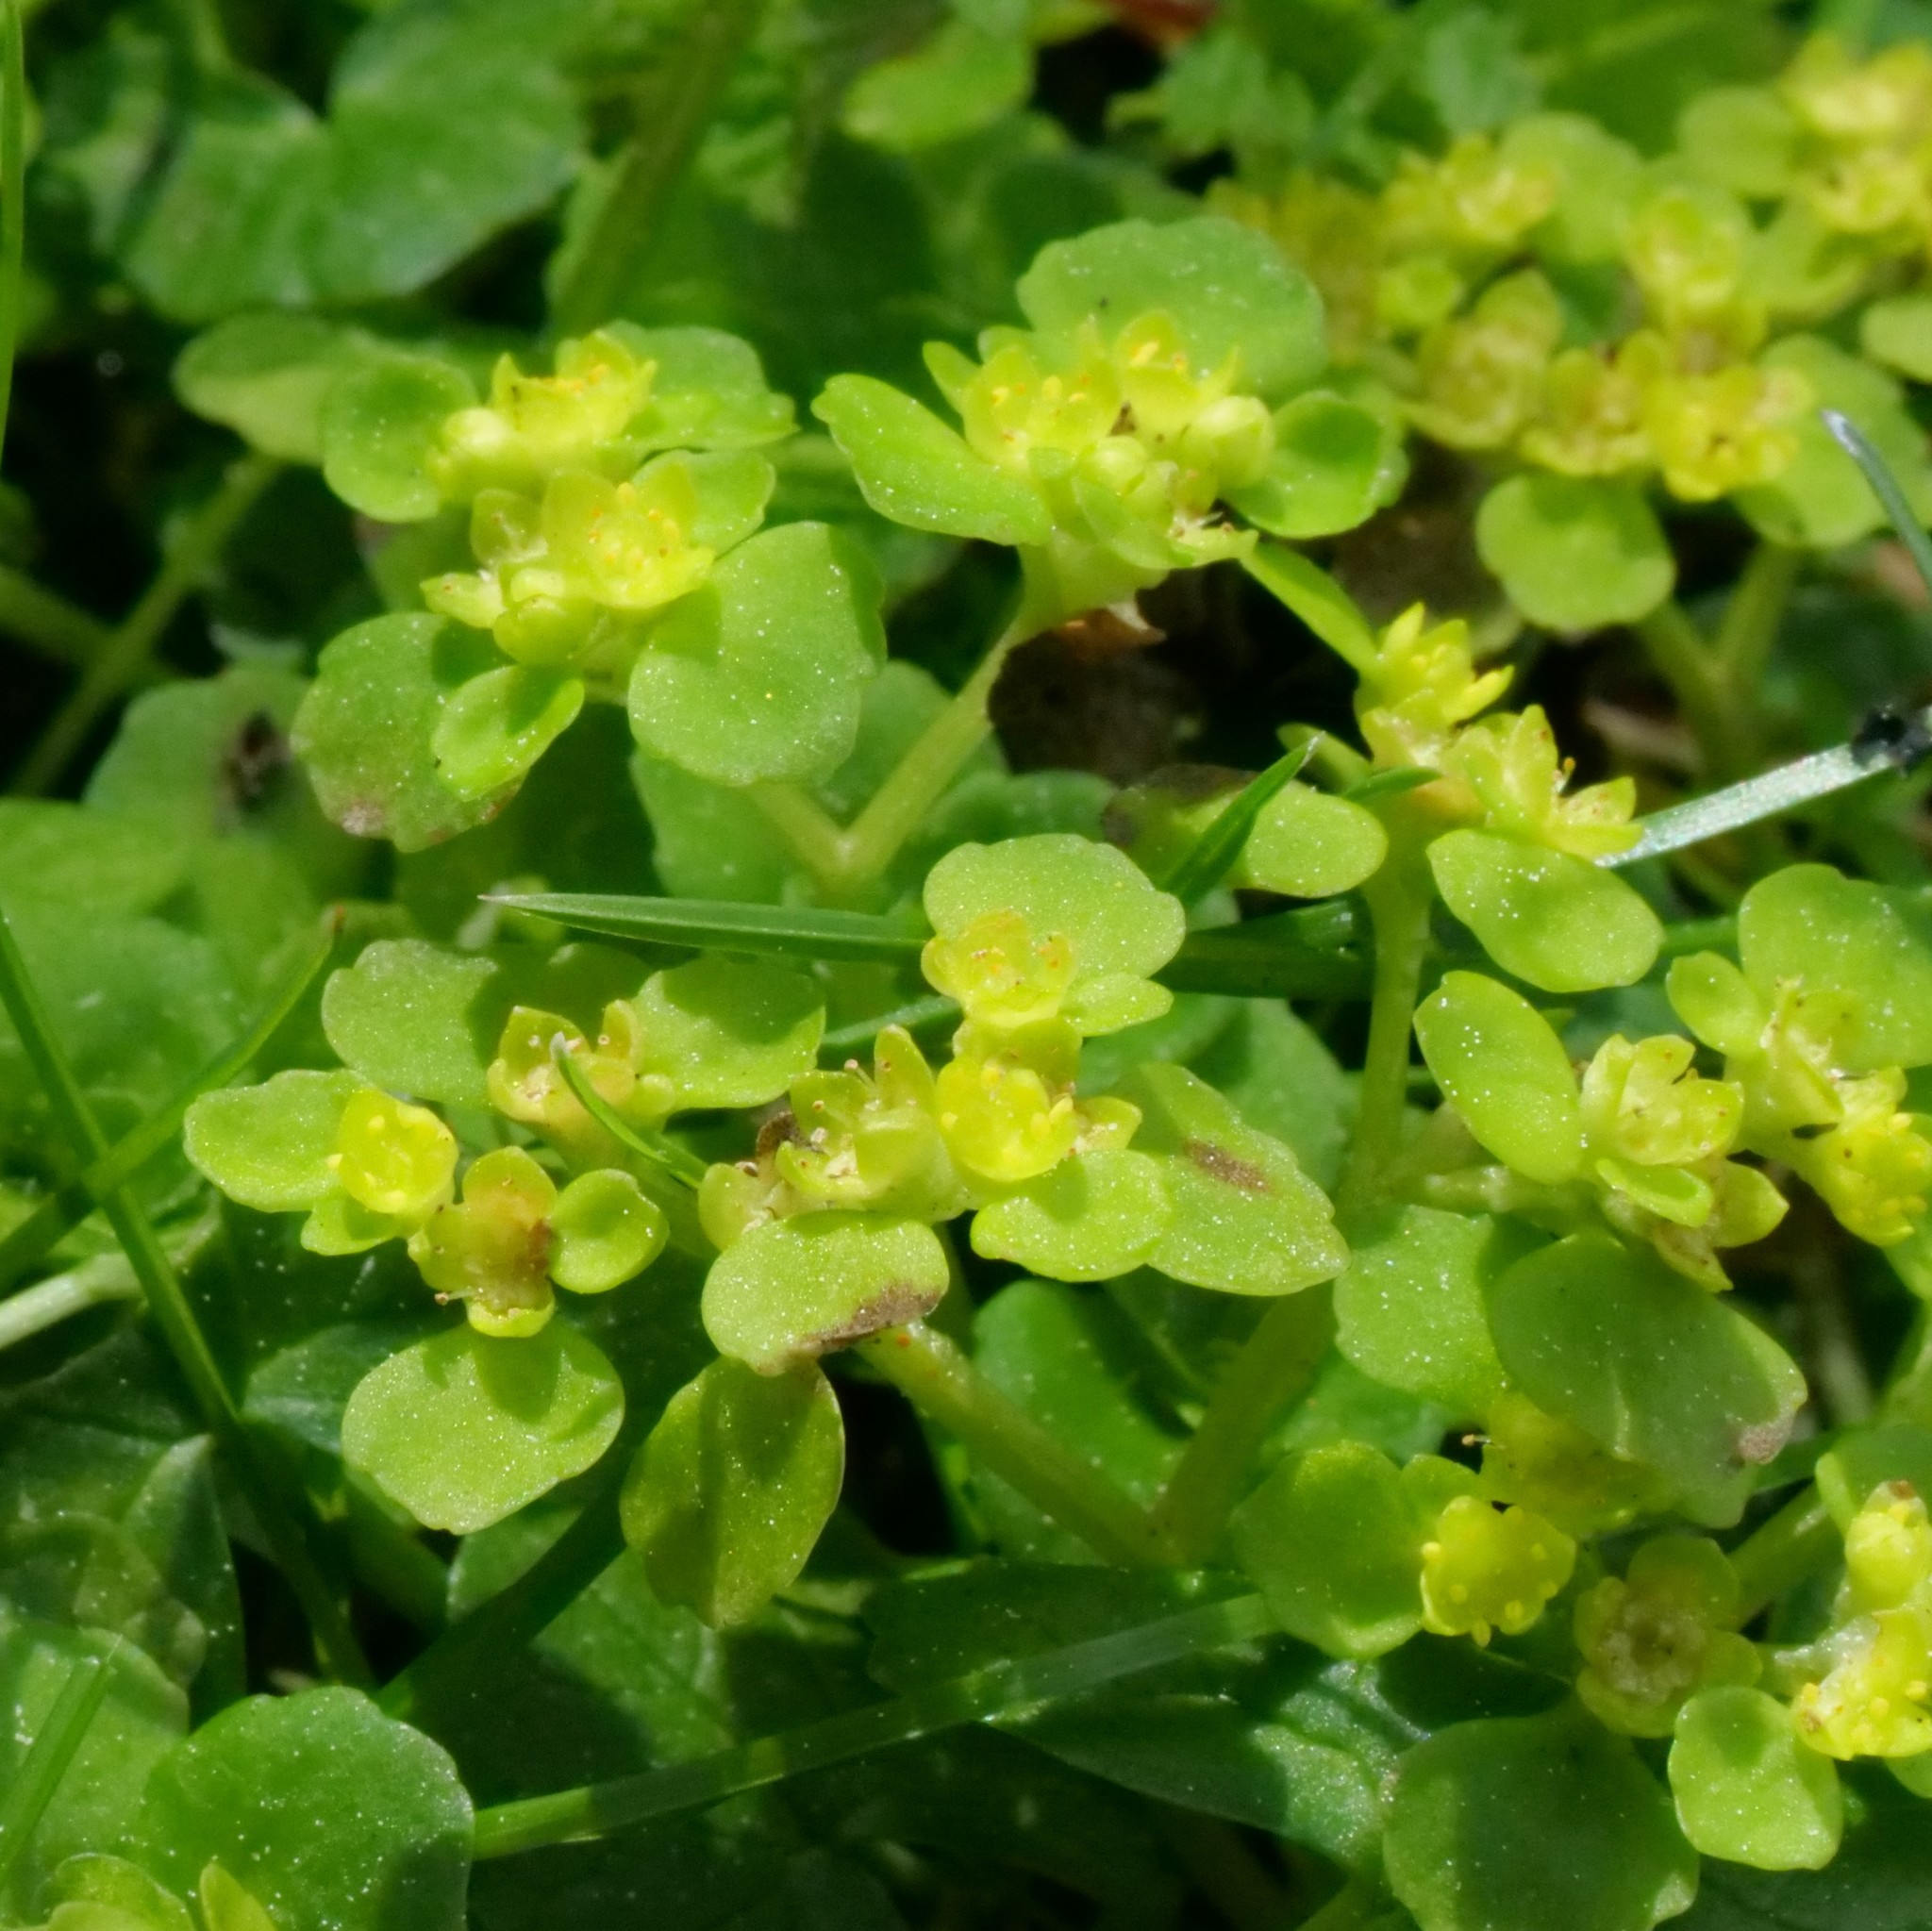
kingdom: Plantae
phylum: Tracheophyta
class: Magnoliopsida
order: Saxifragales
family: Saxifragaceae
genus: Chrysosplenium
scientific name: Chrysosplenium oppositifolium
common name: Opposite-leaved golden-saxifrage
